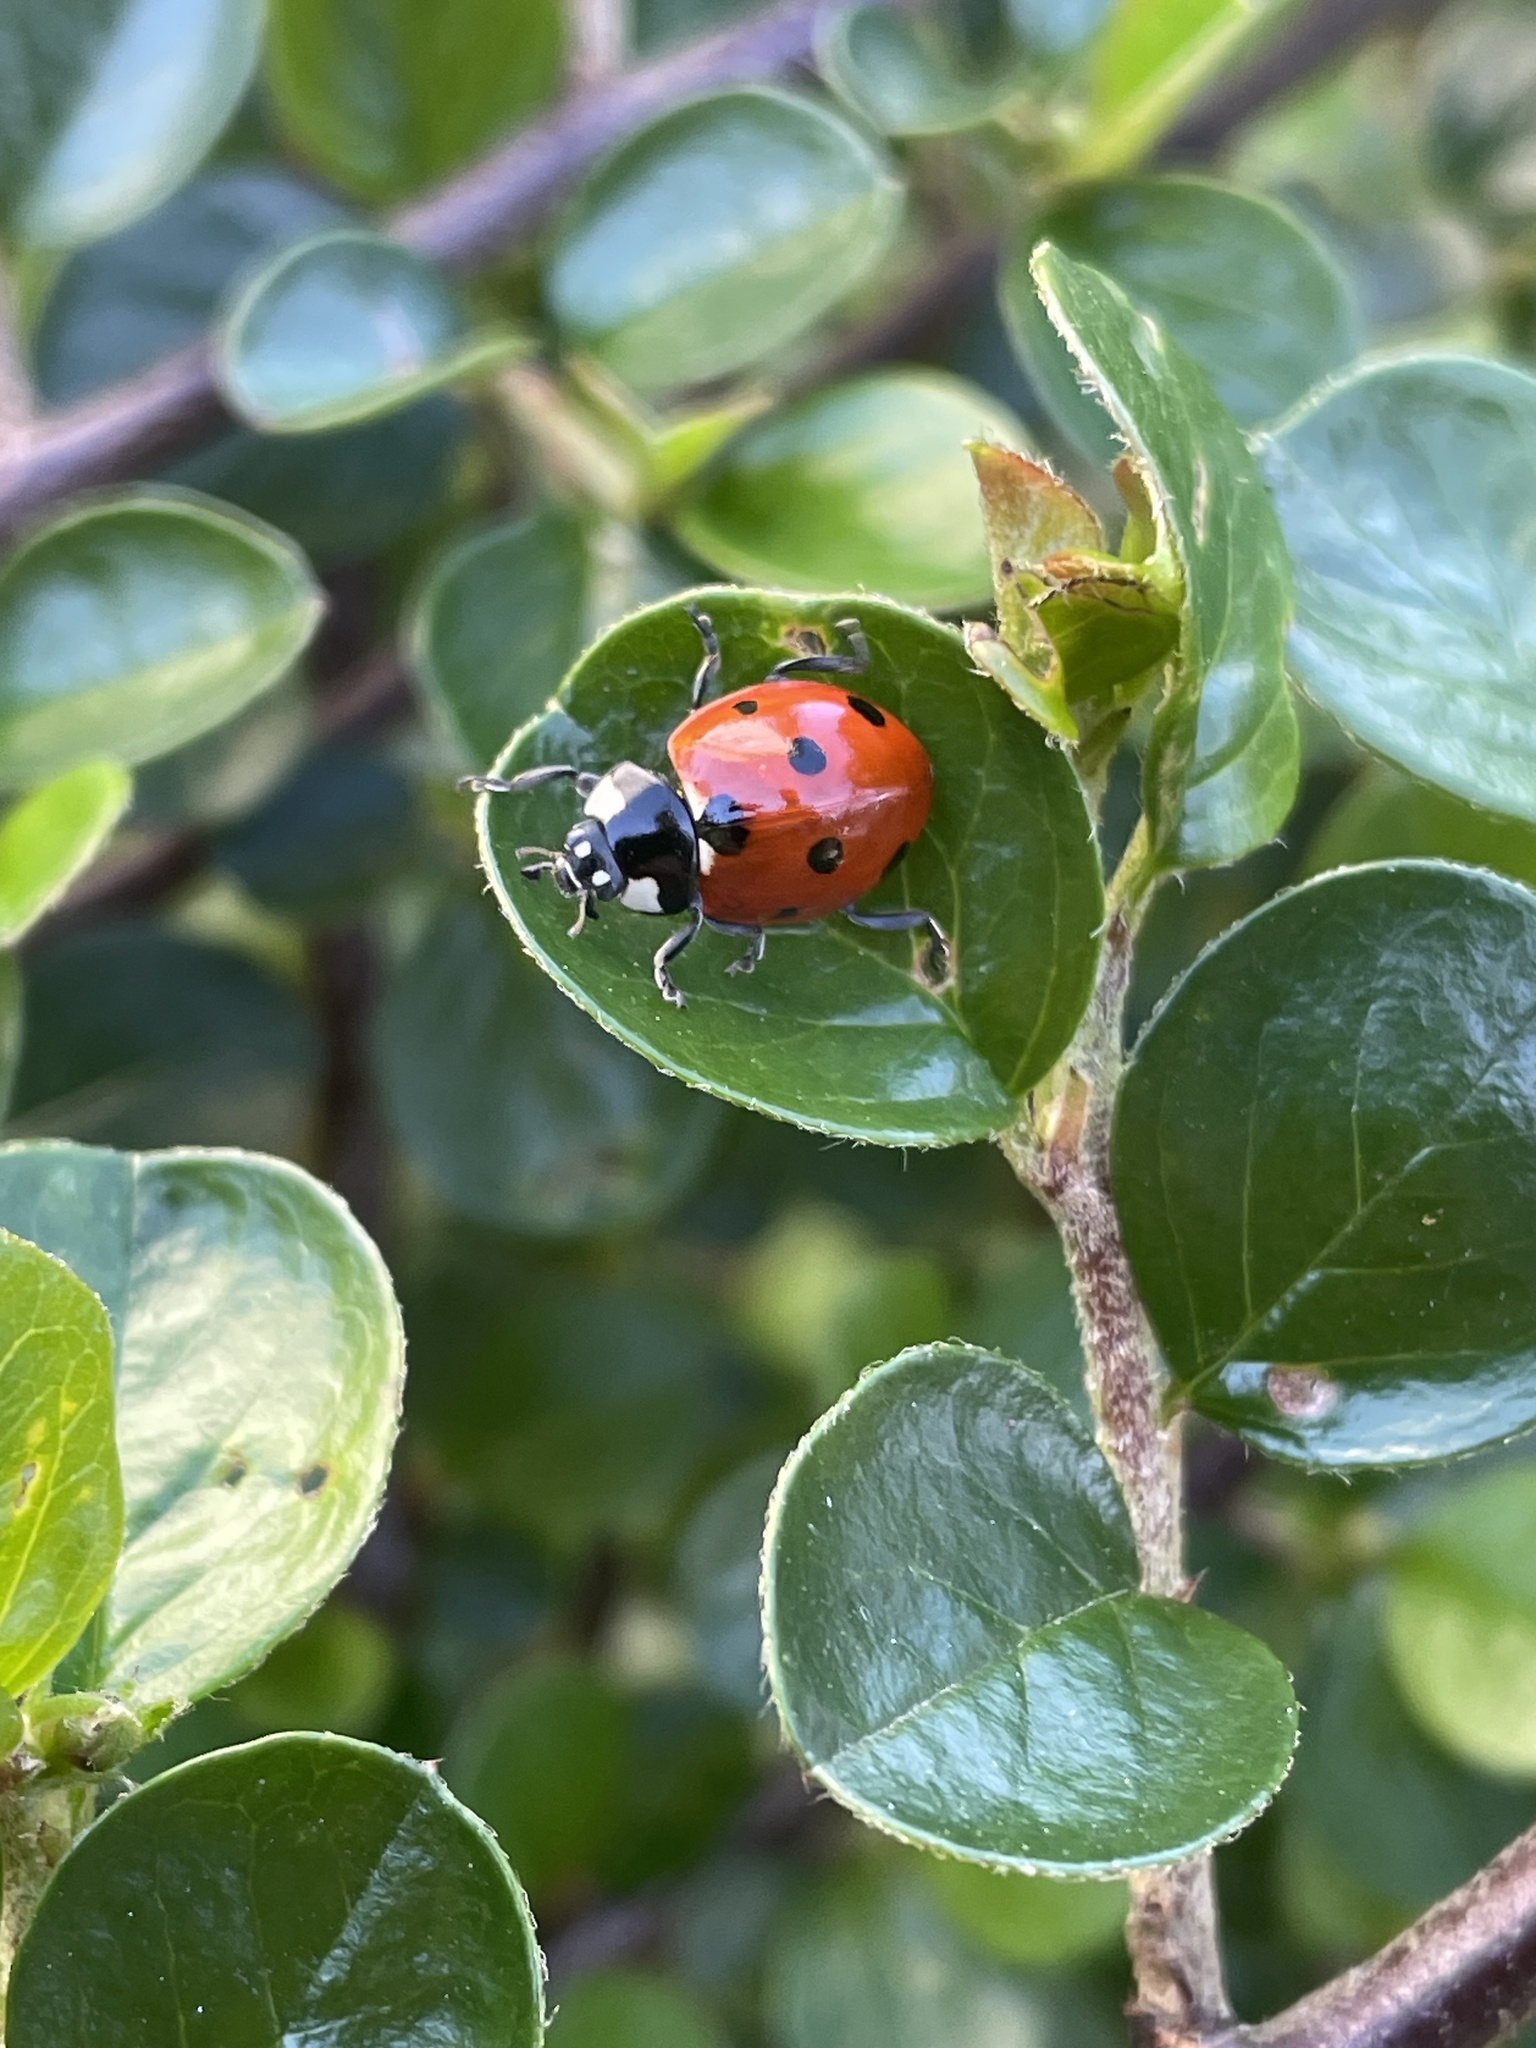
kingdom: Animalia
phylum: Arthropoda
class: Insecta
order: Coleoptera
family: Coccinellidae
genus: Coccinella
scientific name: Coccinella septempunctata
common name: Sevenspotted lady beetle
